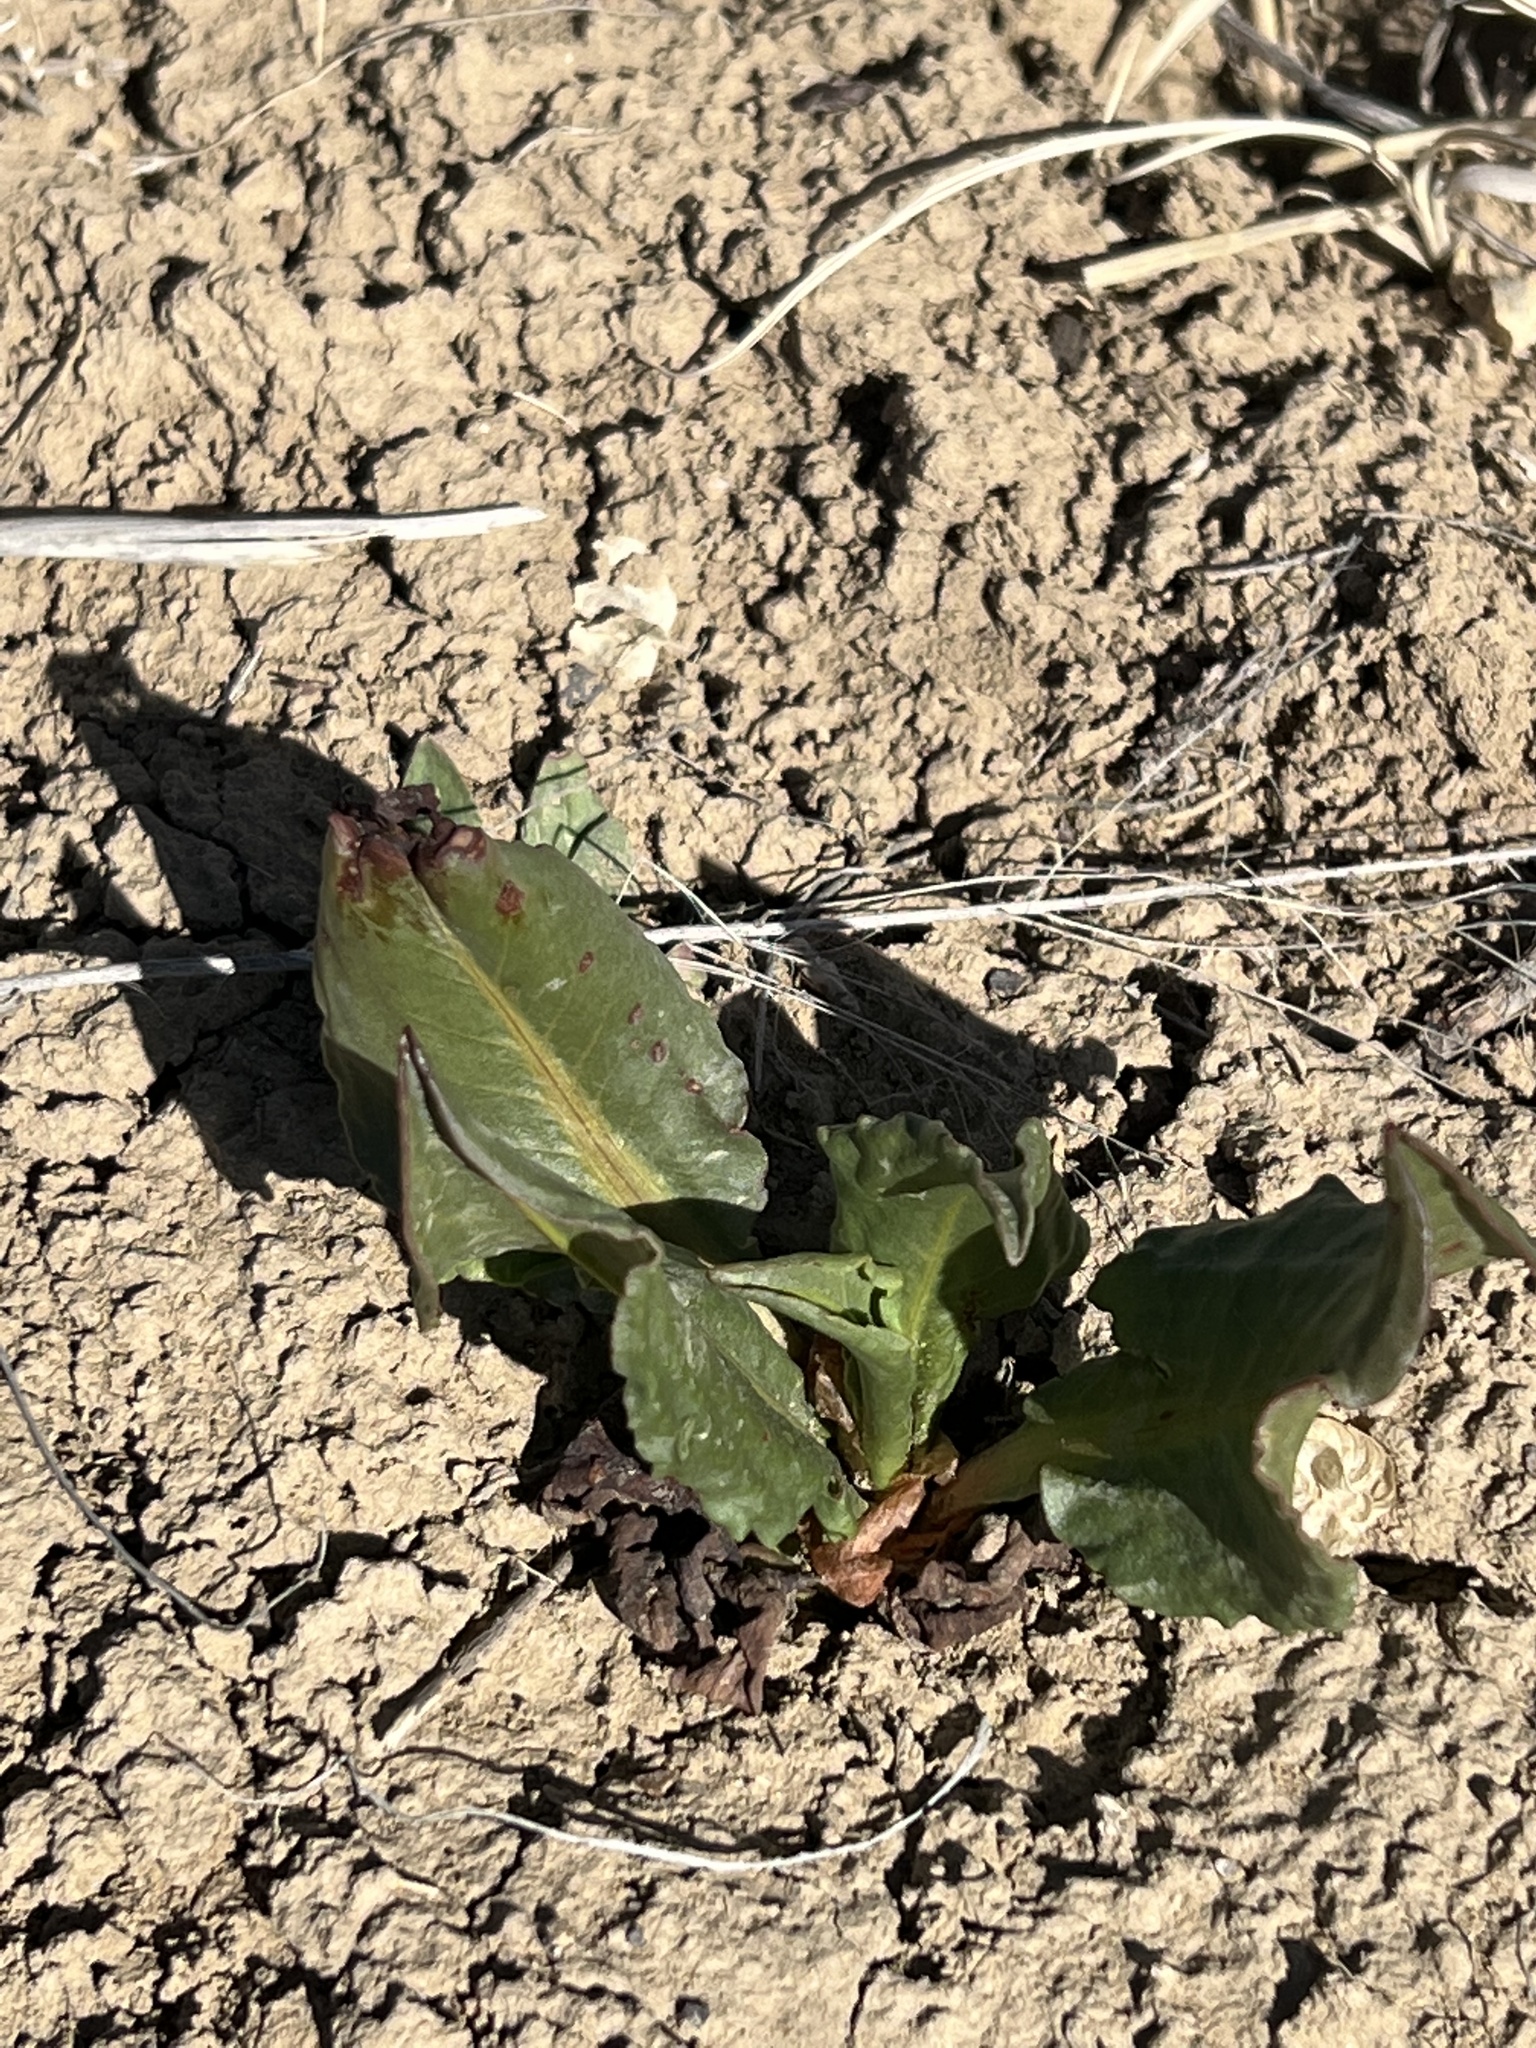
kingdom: Plantae
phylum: Tracheophyta
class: Magnoliopsida
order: Caryophyllales
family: Polygonaceae
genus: Rumex
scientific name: Rumex hymenosepalus
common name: Ganagra
